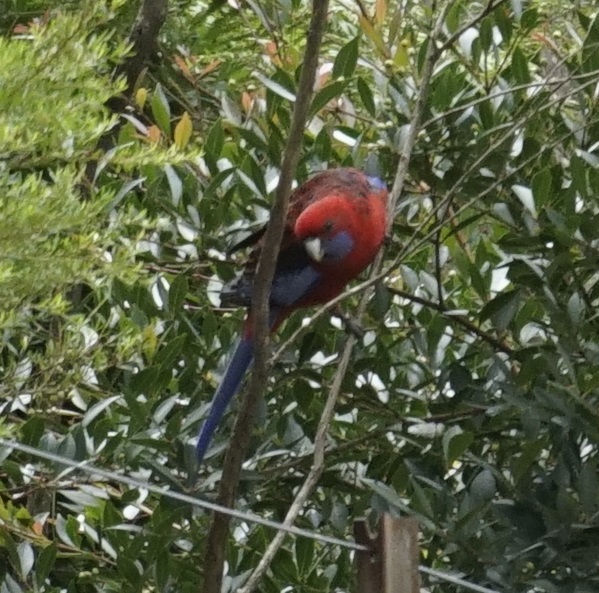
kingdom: Animalia
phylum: Chordata
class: Aves
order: Psittaciformes
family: Psittacidae
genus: Platycercus
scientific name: Platycercus elegans
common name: Crimson rosella
